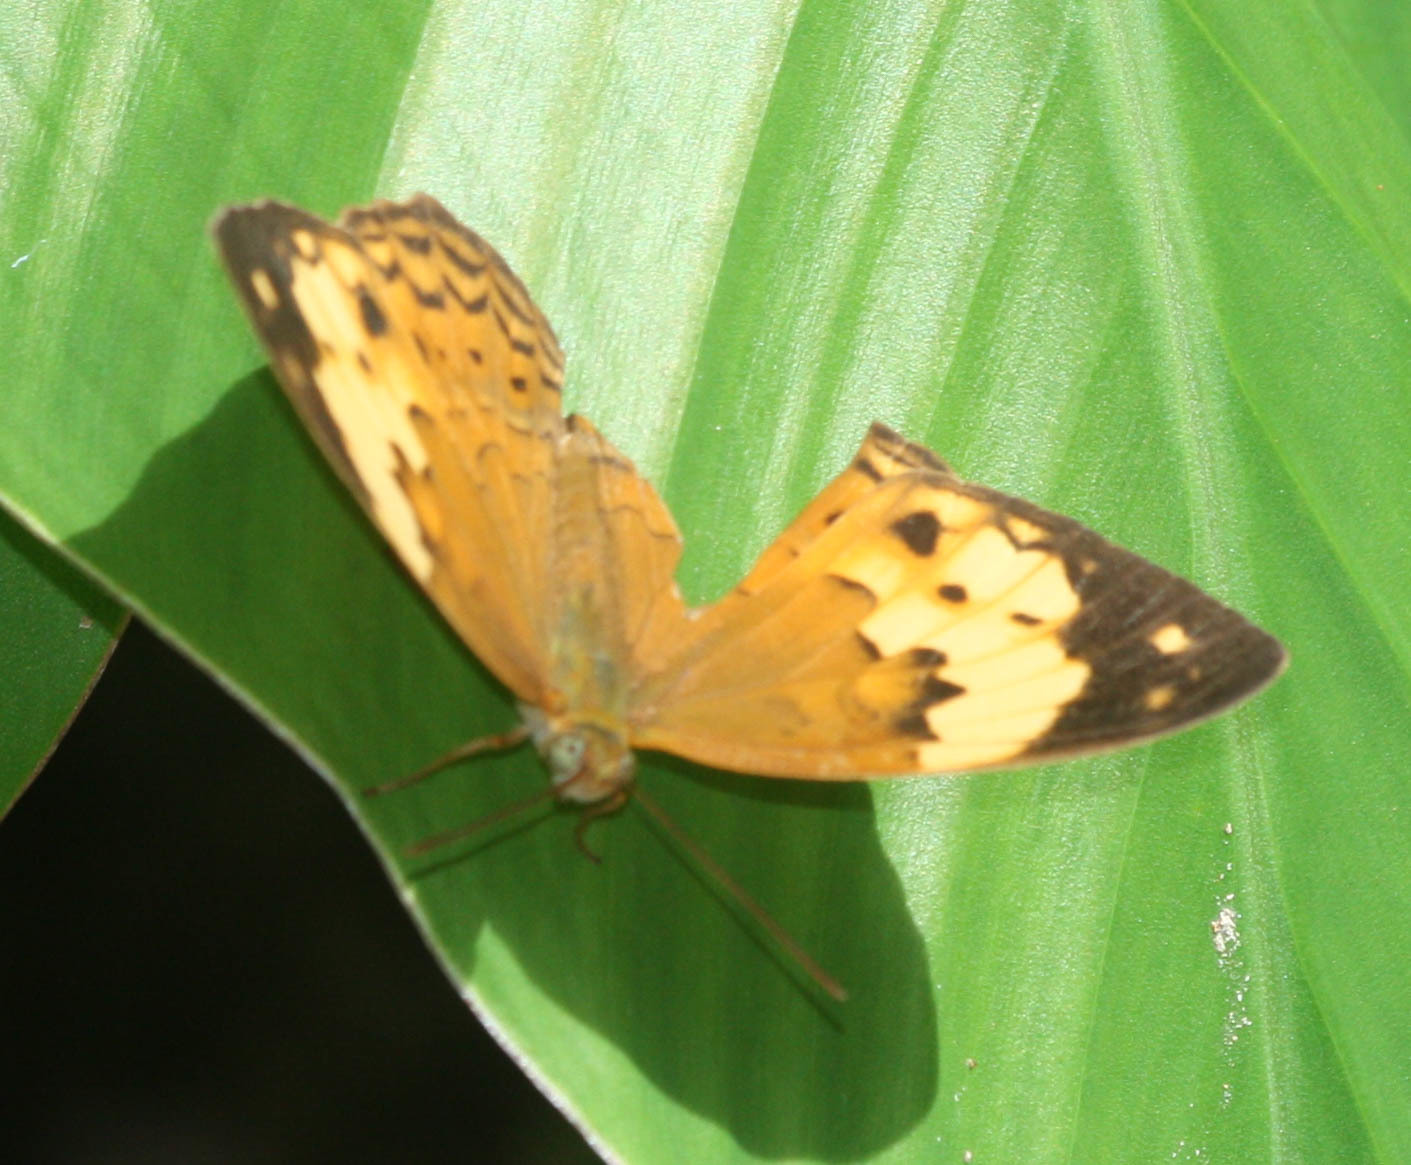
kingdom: Animalia
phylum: Arthropoda
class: Insecta
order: Lepidoptera
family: Nymphalidae
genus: Cupha
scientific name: Cupha erymanthis
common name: Rustic
